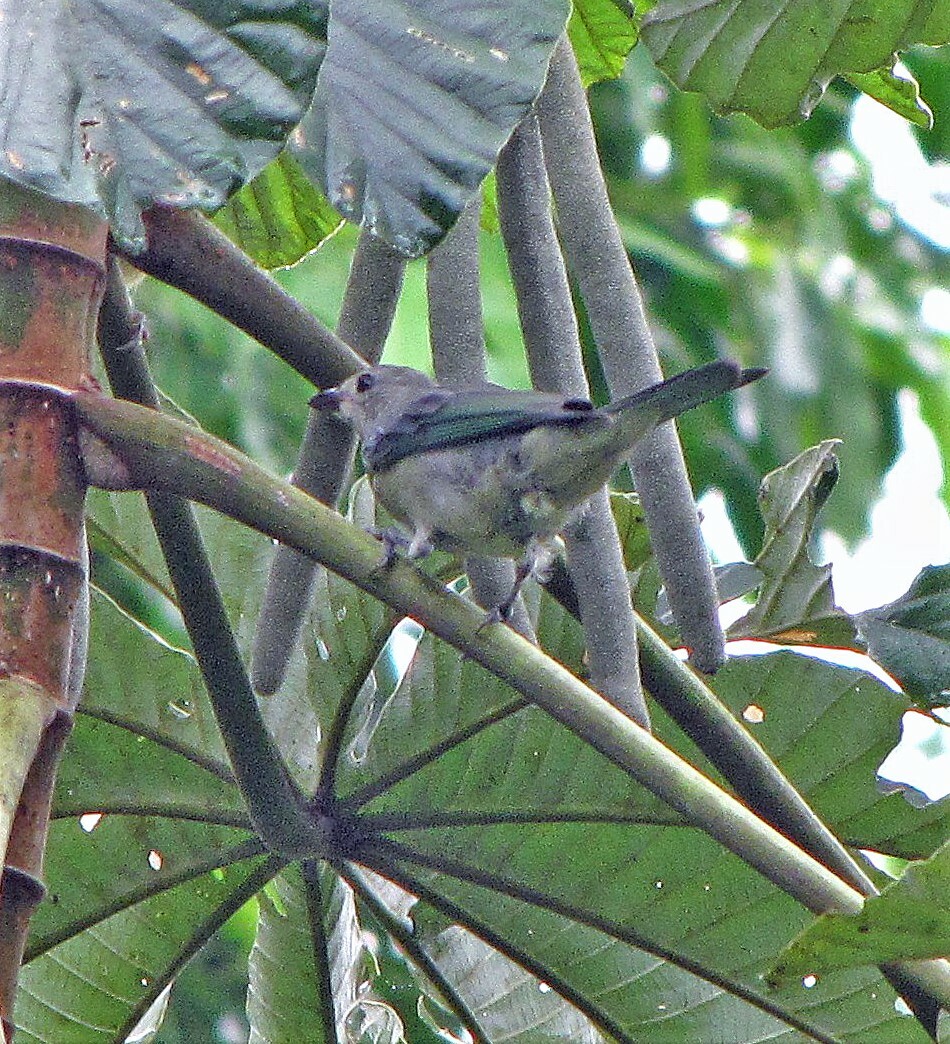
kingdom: Animalia
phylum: Chordata
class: Aves
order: Passeriformes
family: Thraupidae
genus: Thraupis
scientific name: Thraupis sayaca
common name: Sayaca tanager
